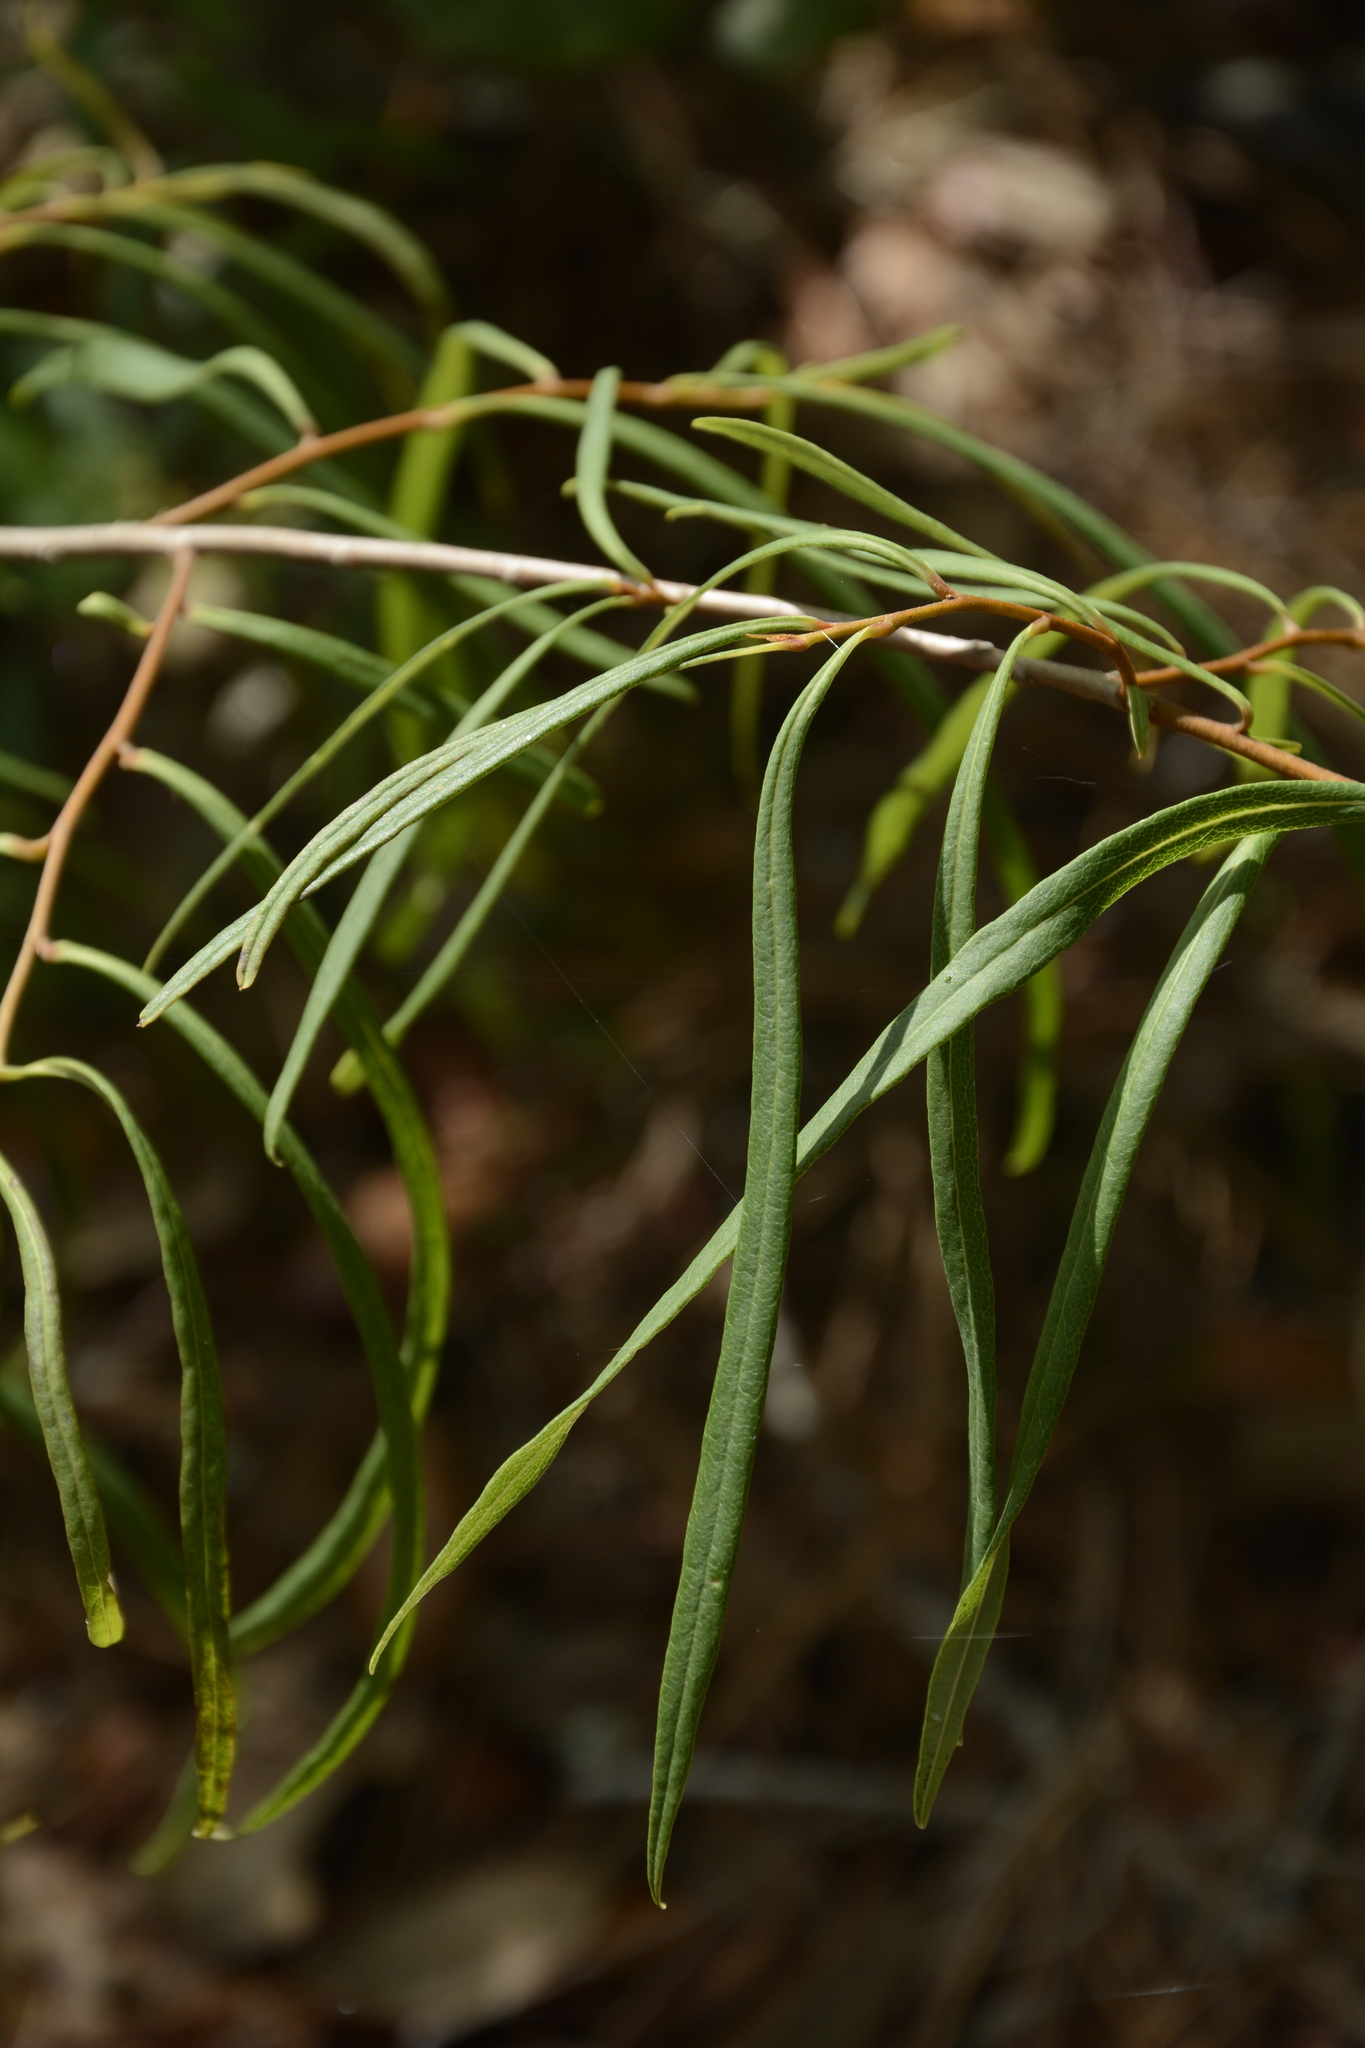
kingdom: Plantae
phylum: Tracheophyta
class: Magnoliopsida
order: Magnoliales
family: Annonaceae
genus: Asimina
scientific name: Asimina longifolia
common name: Polecatbush
